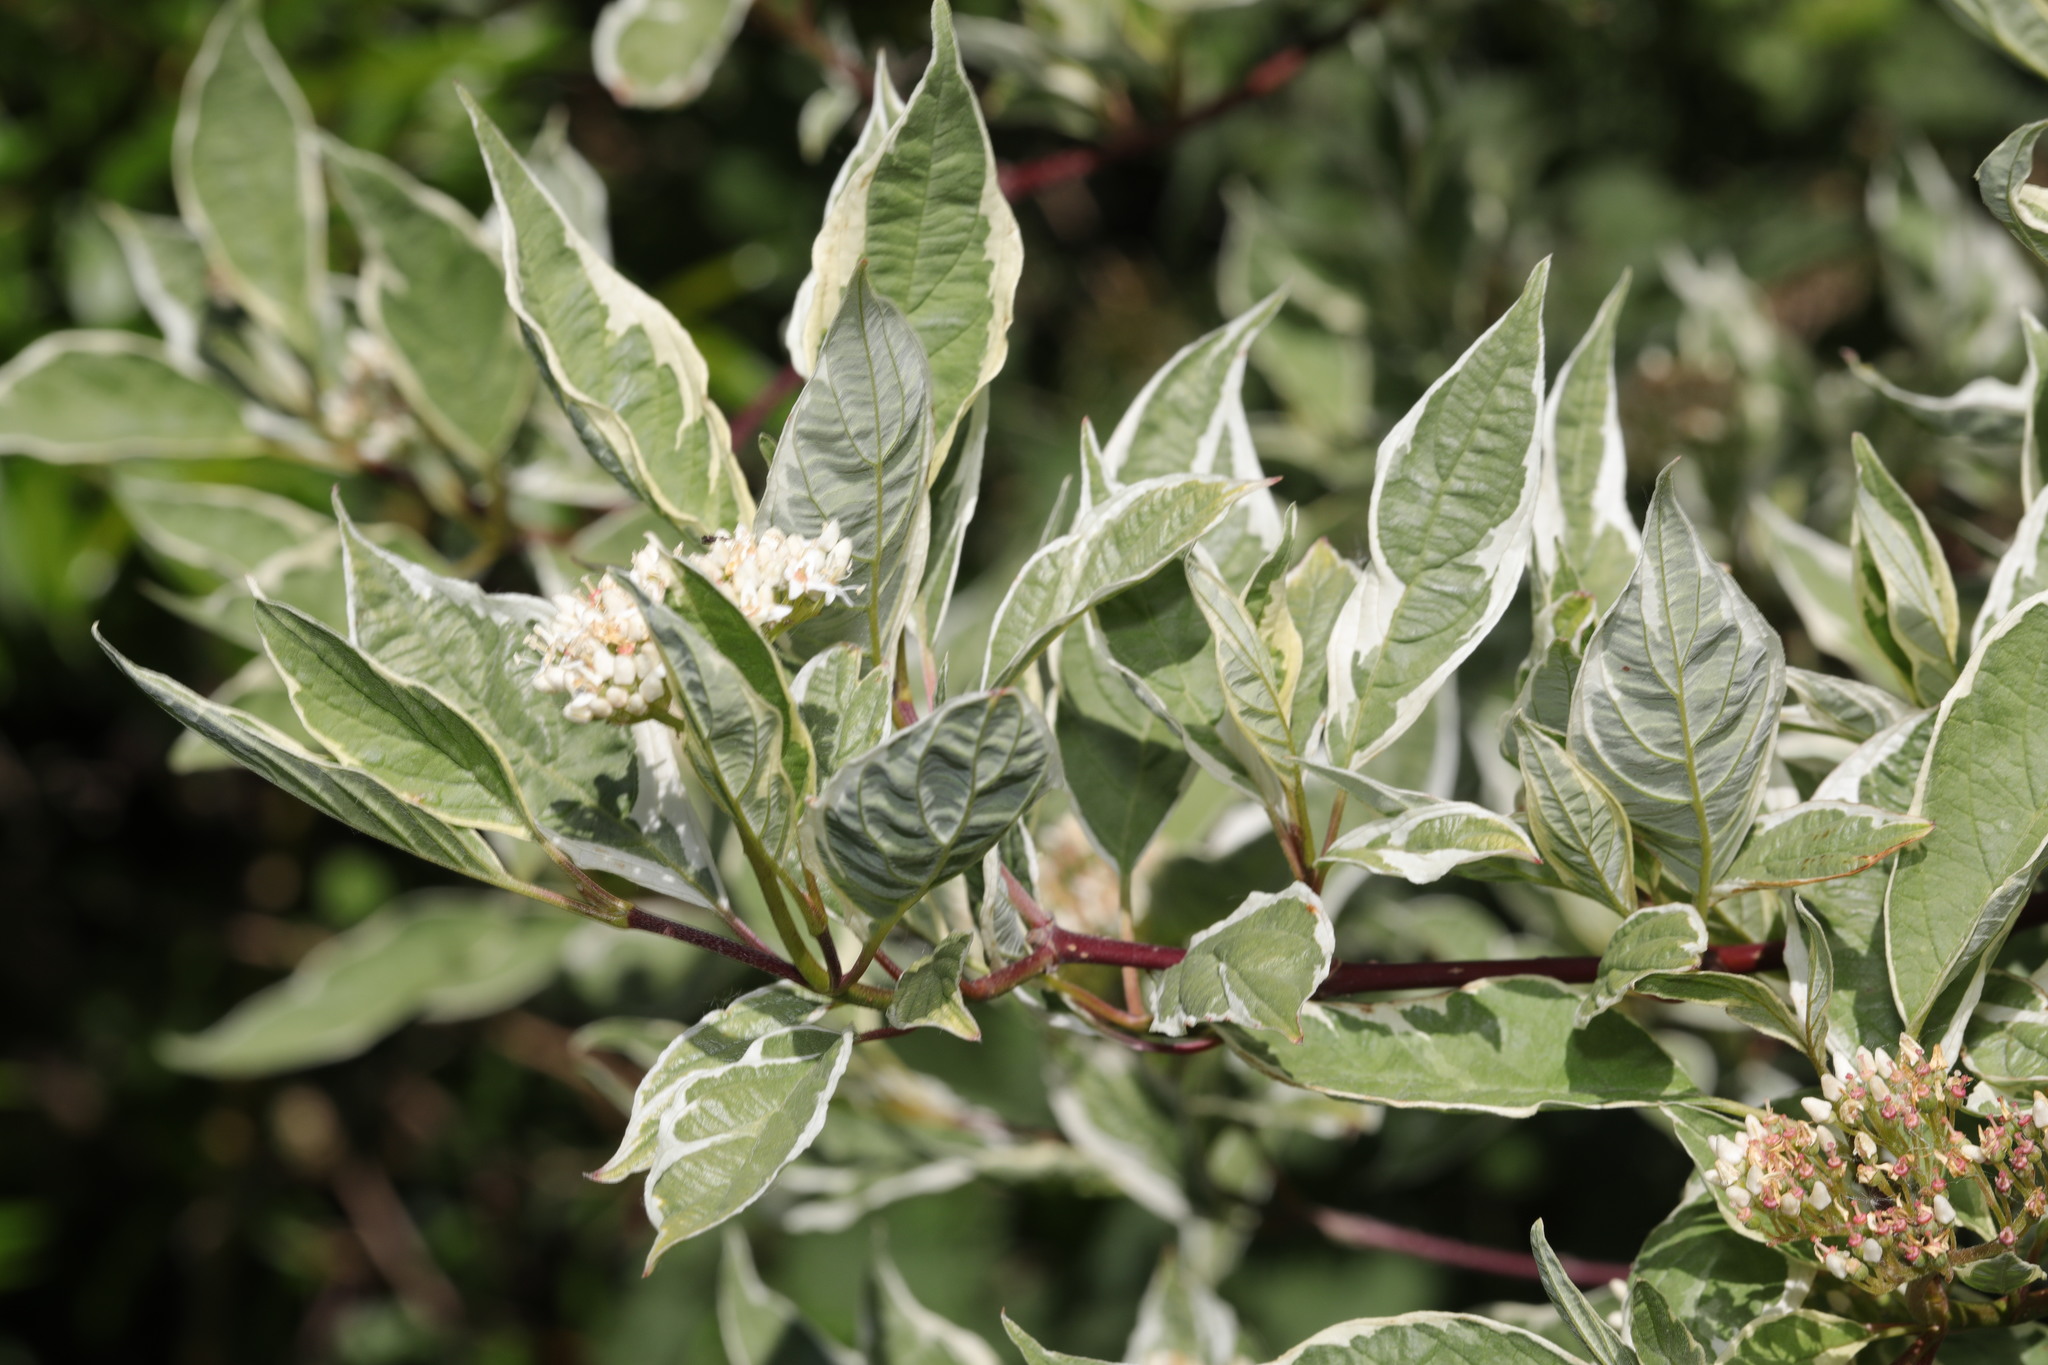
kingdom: Plantae
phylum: Tracheophyta
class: Magnoliopsida
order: Cornales
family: Cornaceae
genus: Cornus
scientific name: Cornus alba
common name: White dogwood
